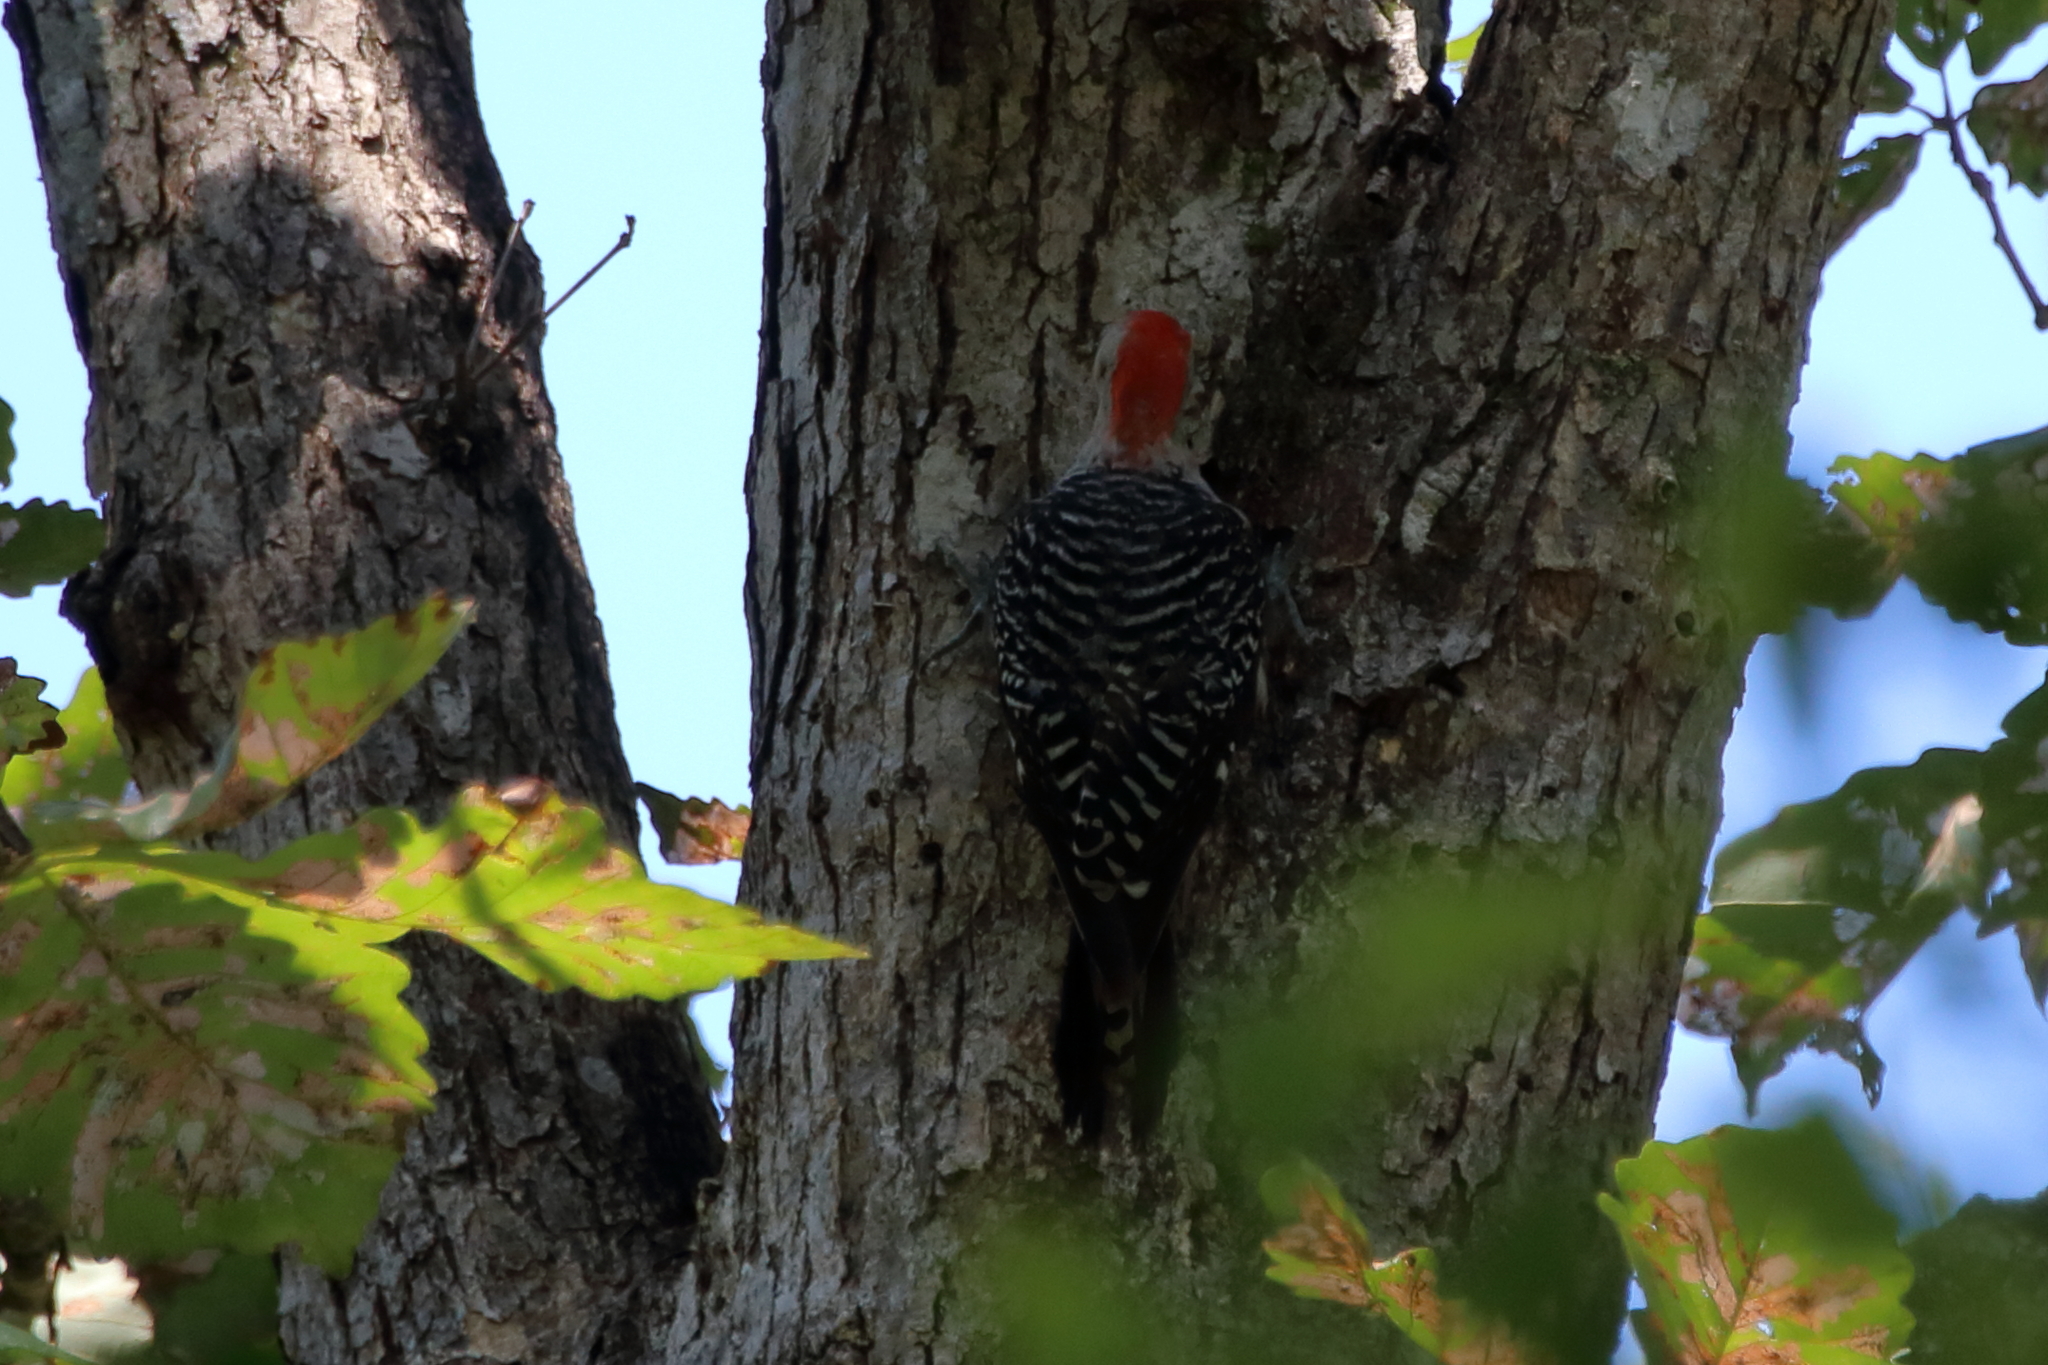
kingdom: Animalia
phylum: Chordata
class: Aves
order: Piciformes
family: Picidae
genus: Melanerpes
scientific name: Melanerpes carolinus
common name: Red-bellied woodpecker
